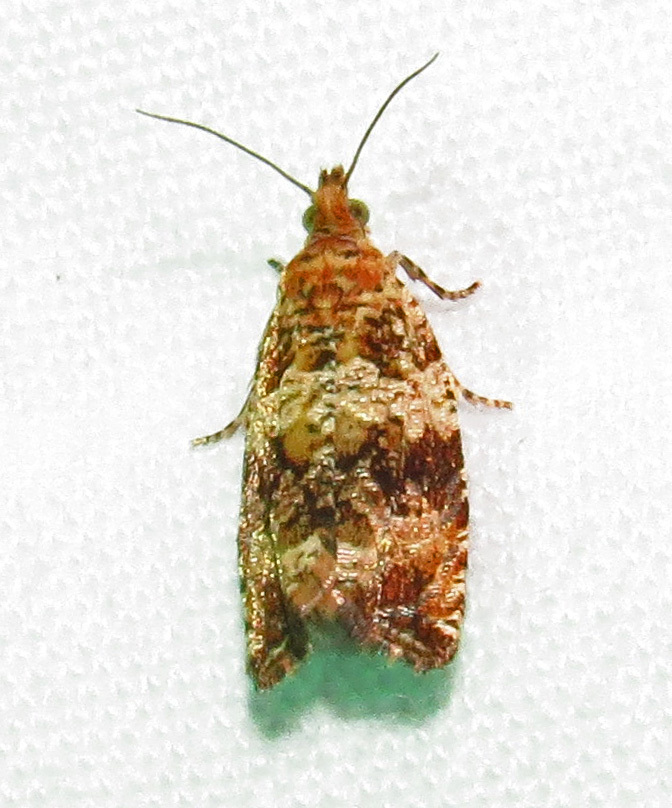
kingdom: Animalia
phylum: Arthropoda
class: Insecta
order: Lepidoptera
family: Tortricidae
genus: Celypha
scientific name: Celypha cespitana
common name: Thyme marble
